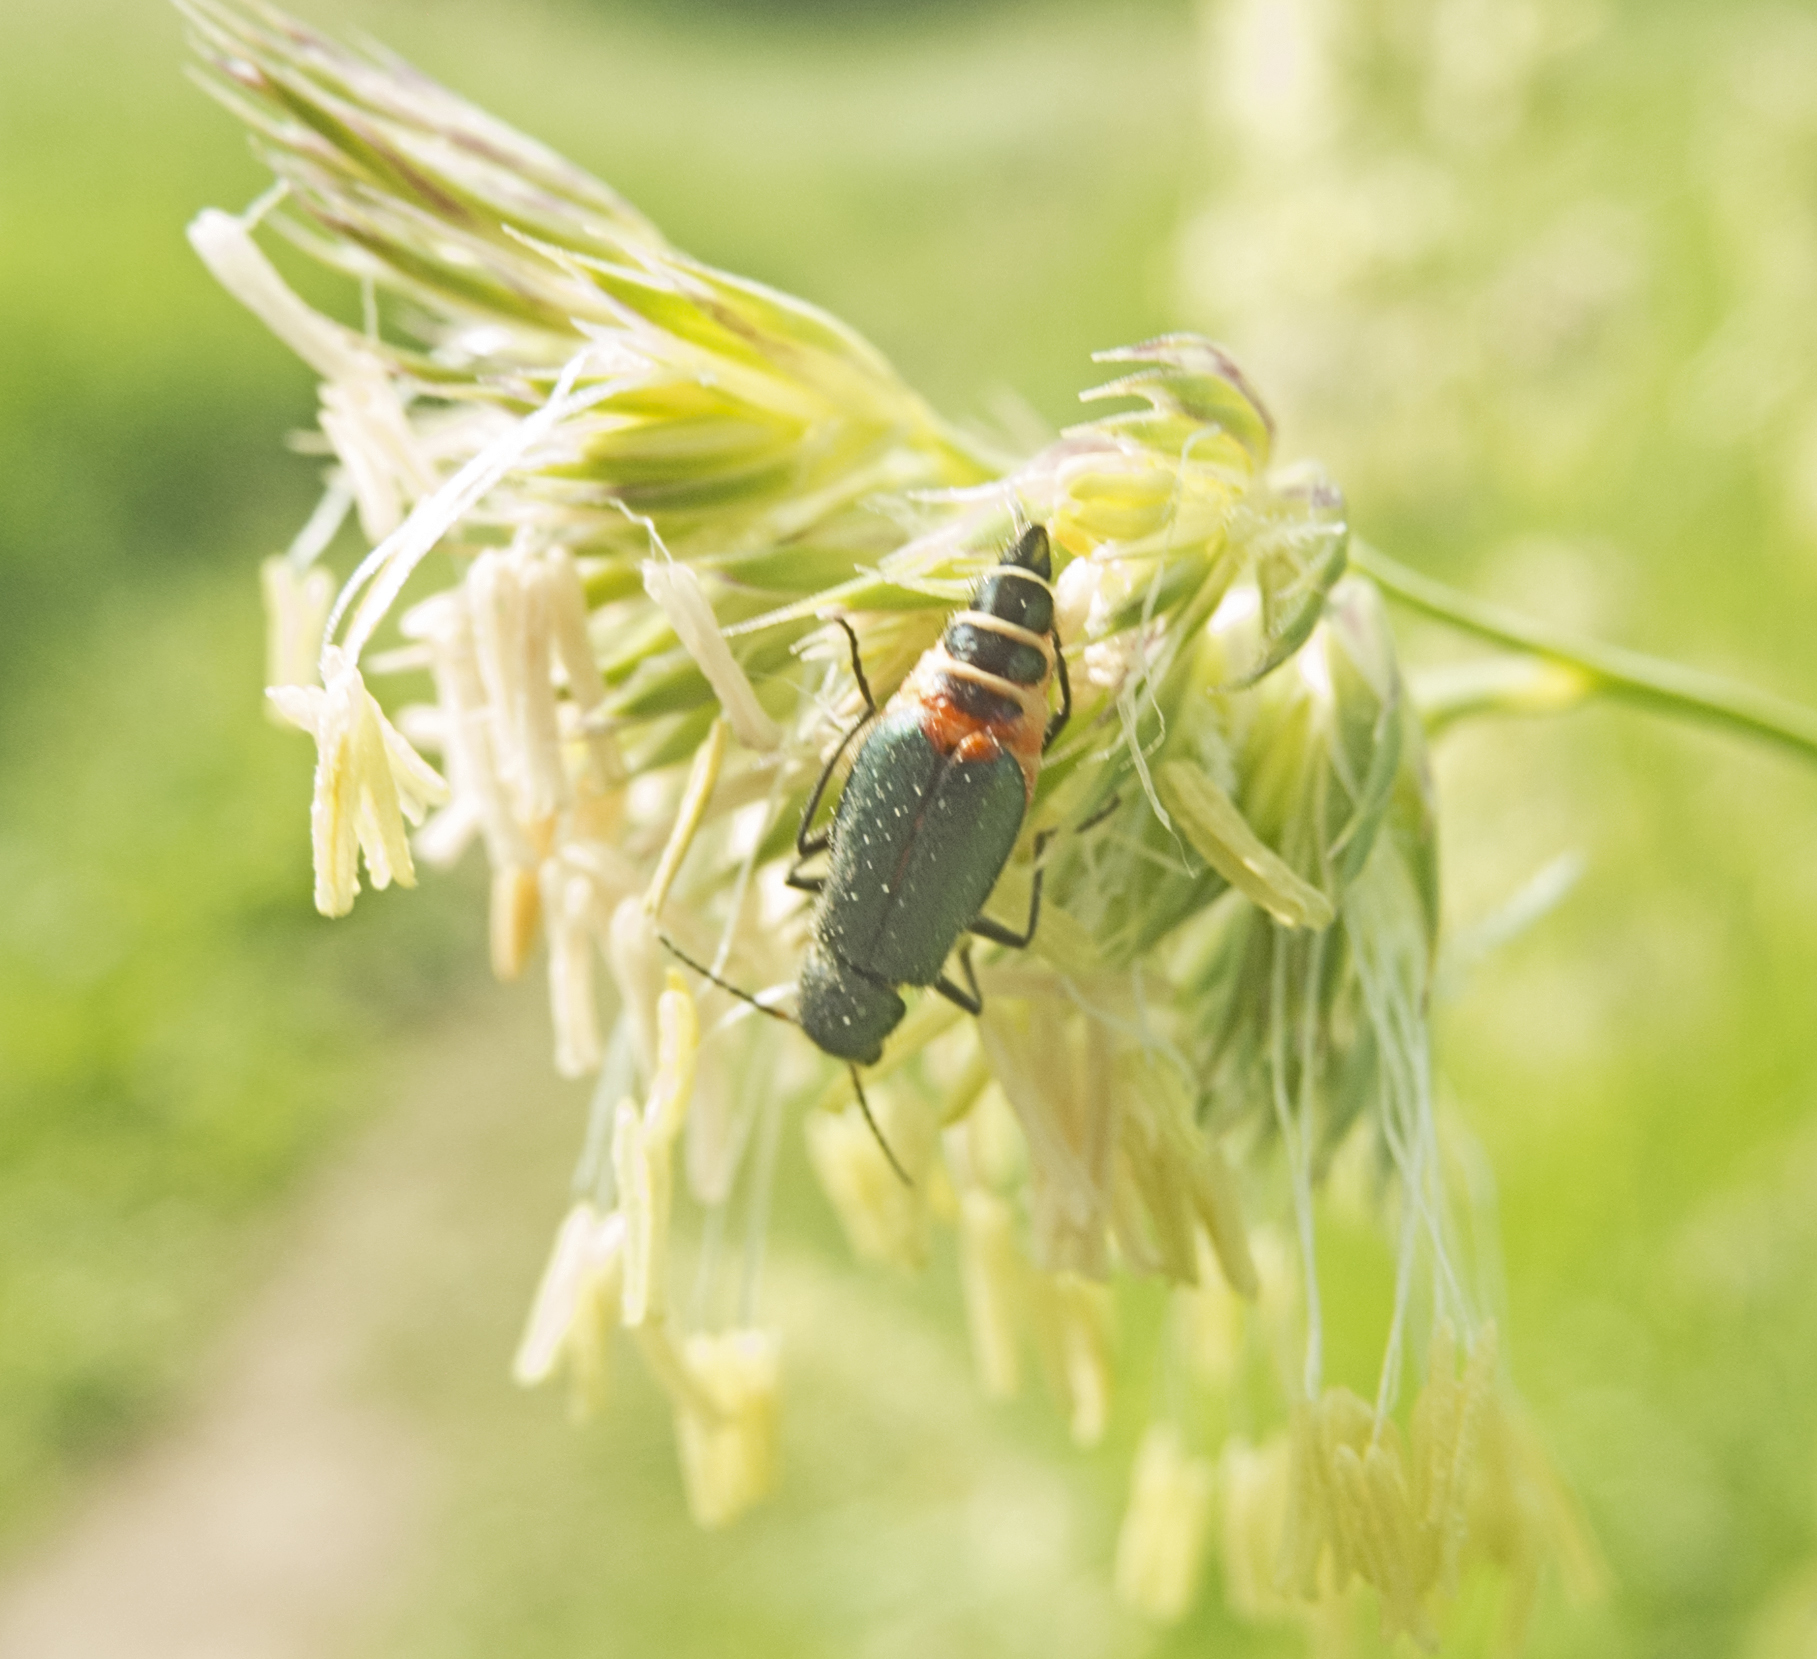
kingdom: Animalia
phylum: Arthropoda
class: Insecta
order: Coleoptera
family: Malachiidae
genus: Cordylepherus
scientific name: Cordylepherus viridis
